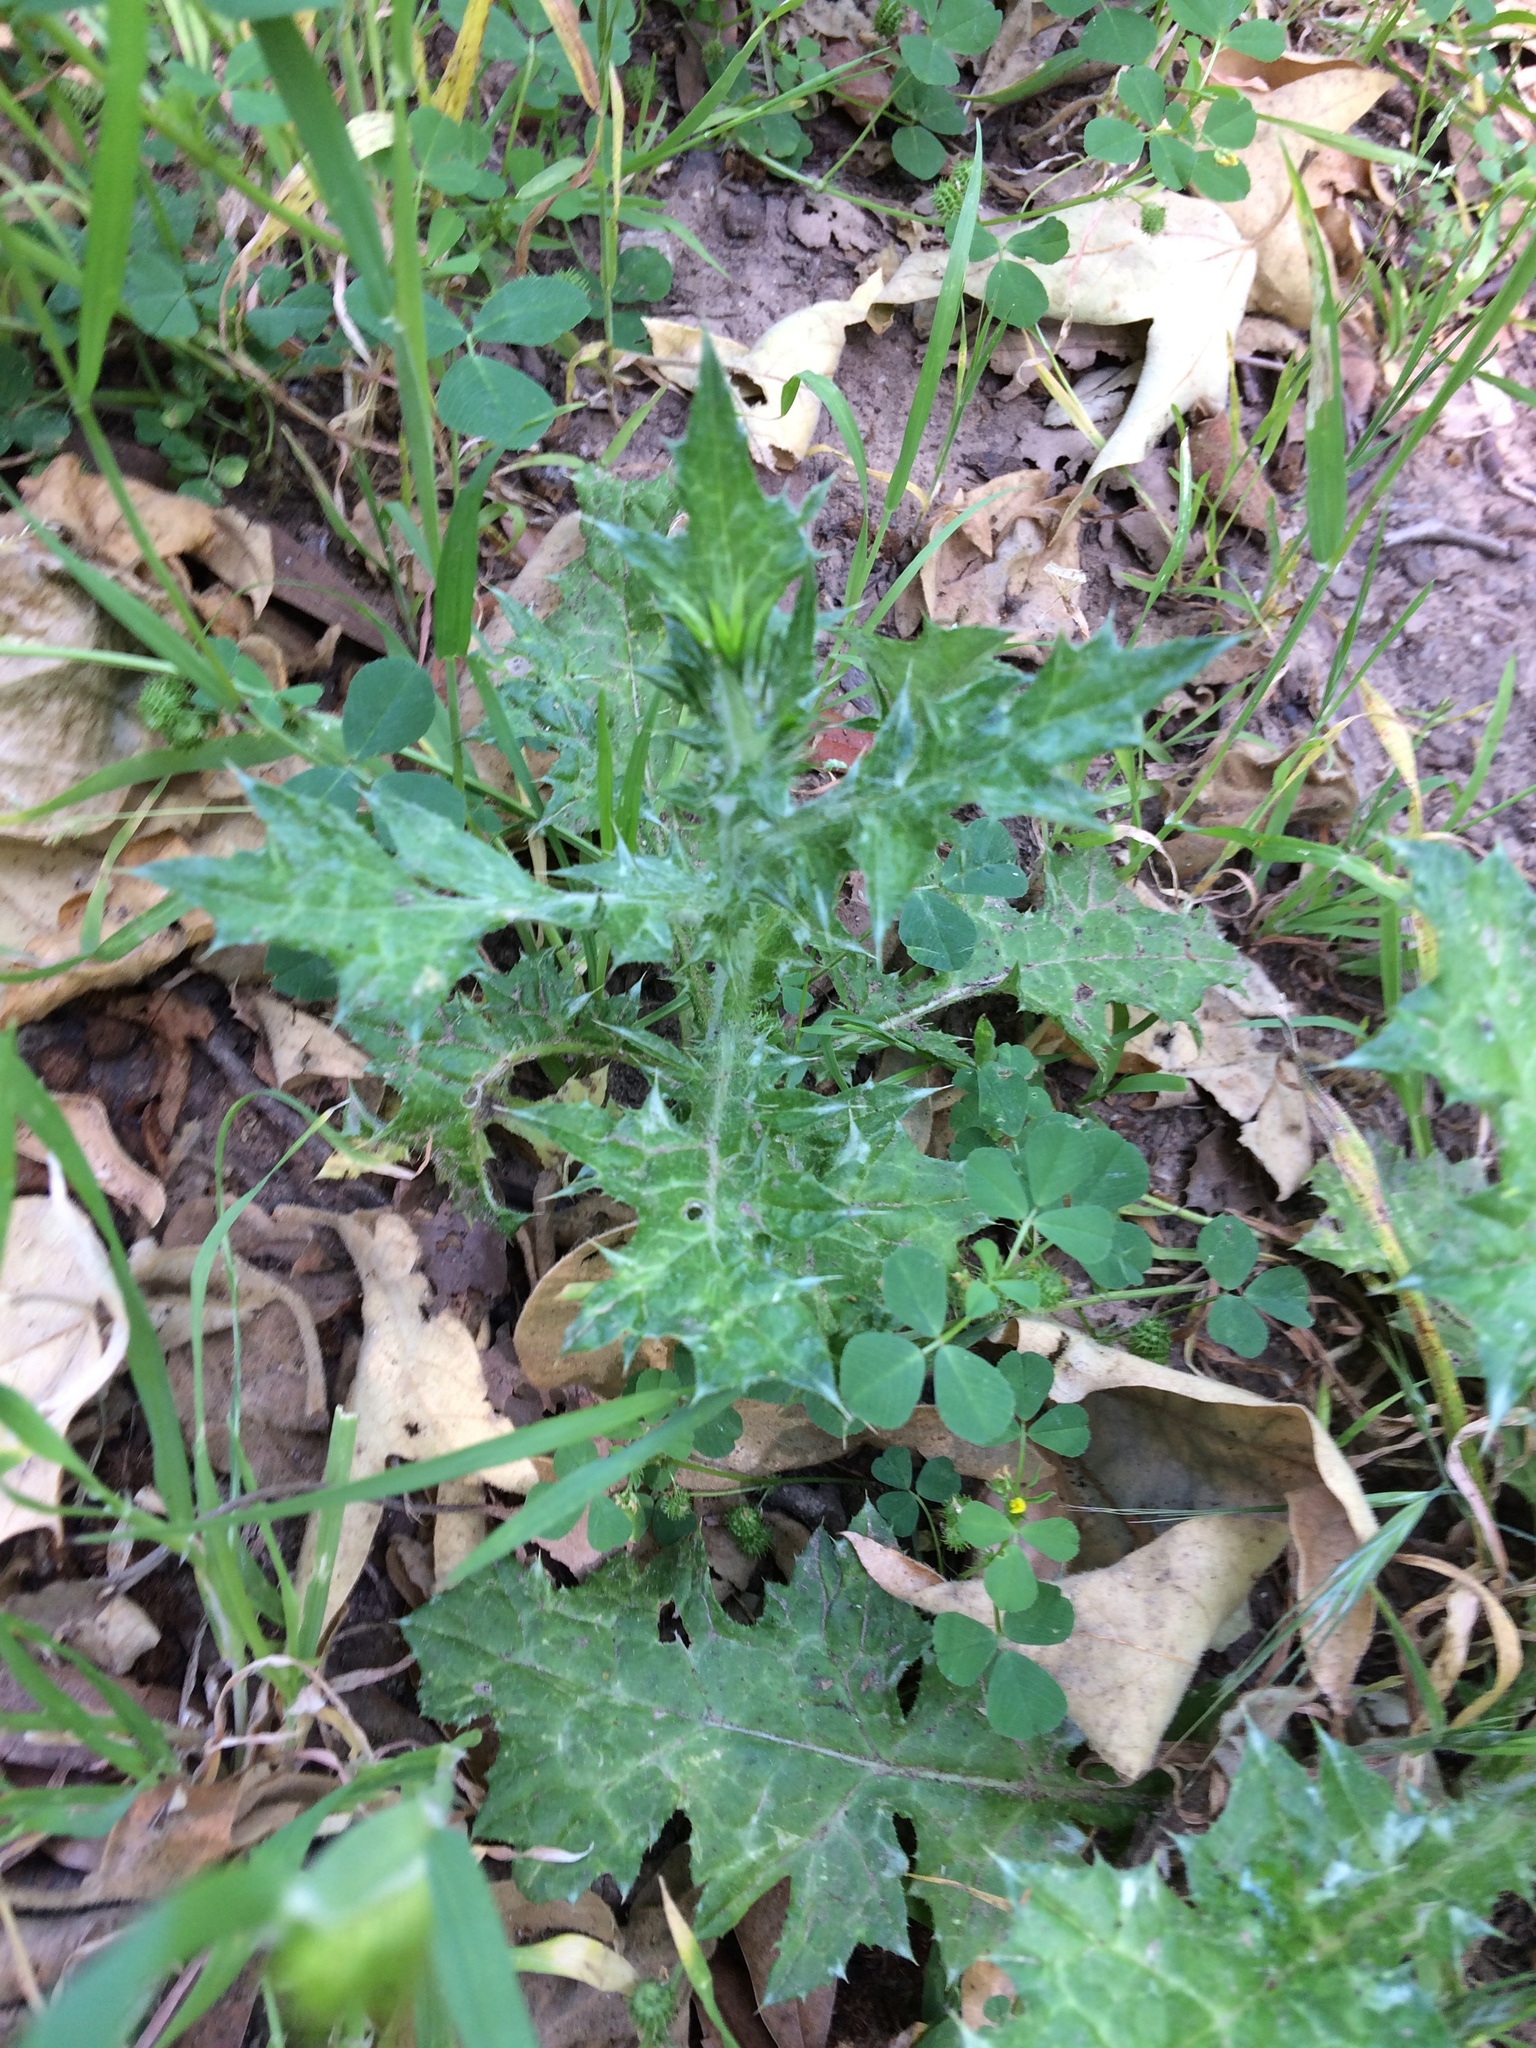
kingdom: Plantae
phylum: Tracheophyta
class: Magnoliopsida
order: Asterales
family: Asteraceae
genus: Carduus
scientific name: Carduus pycnocephalus
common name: Plymouth thistle
